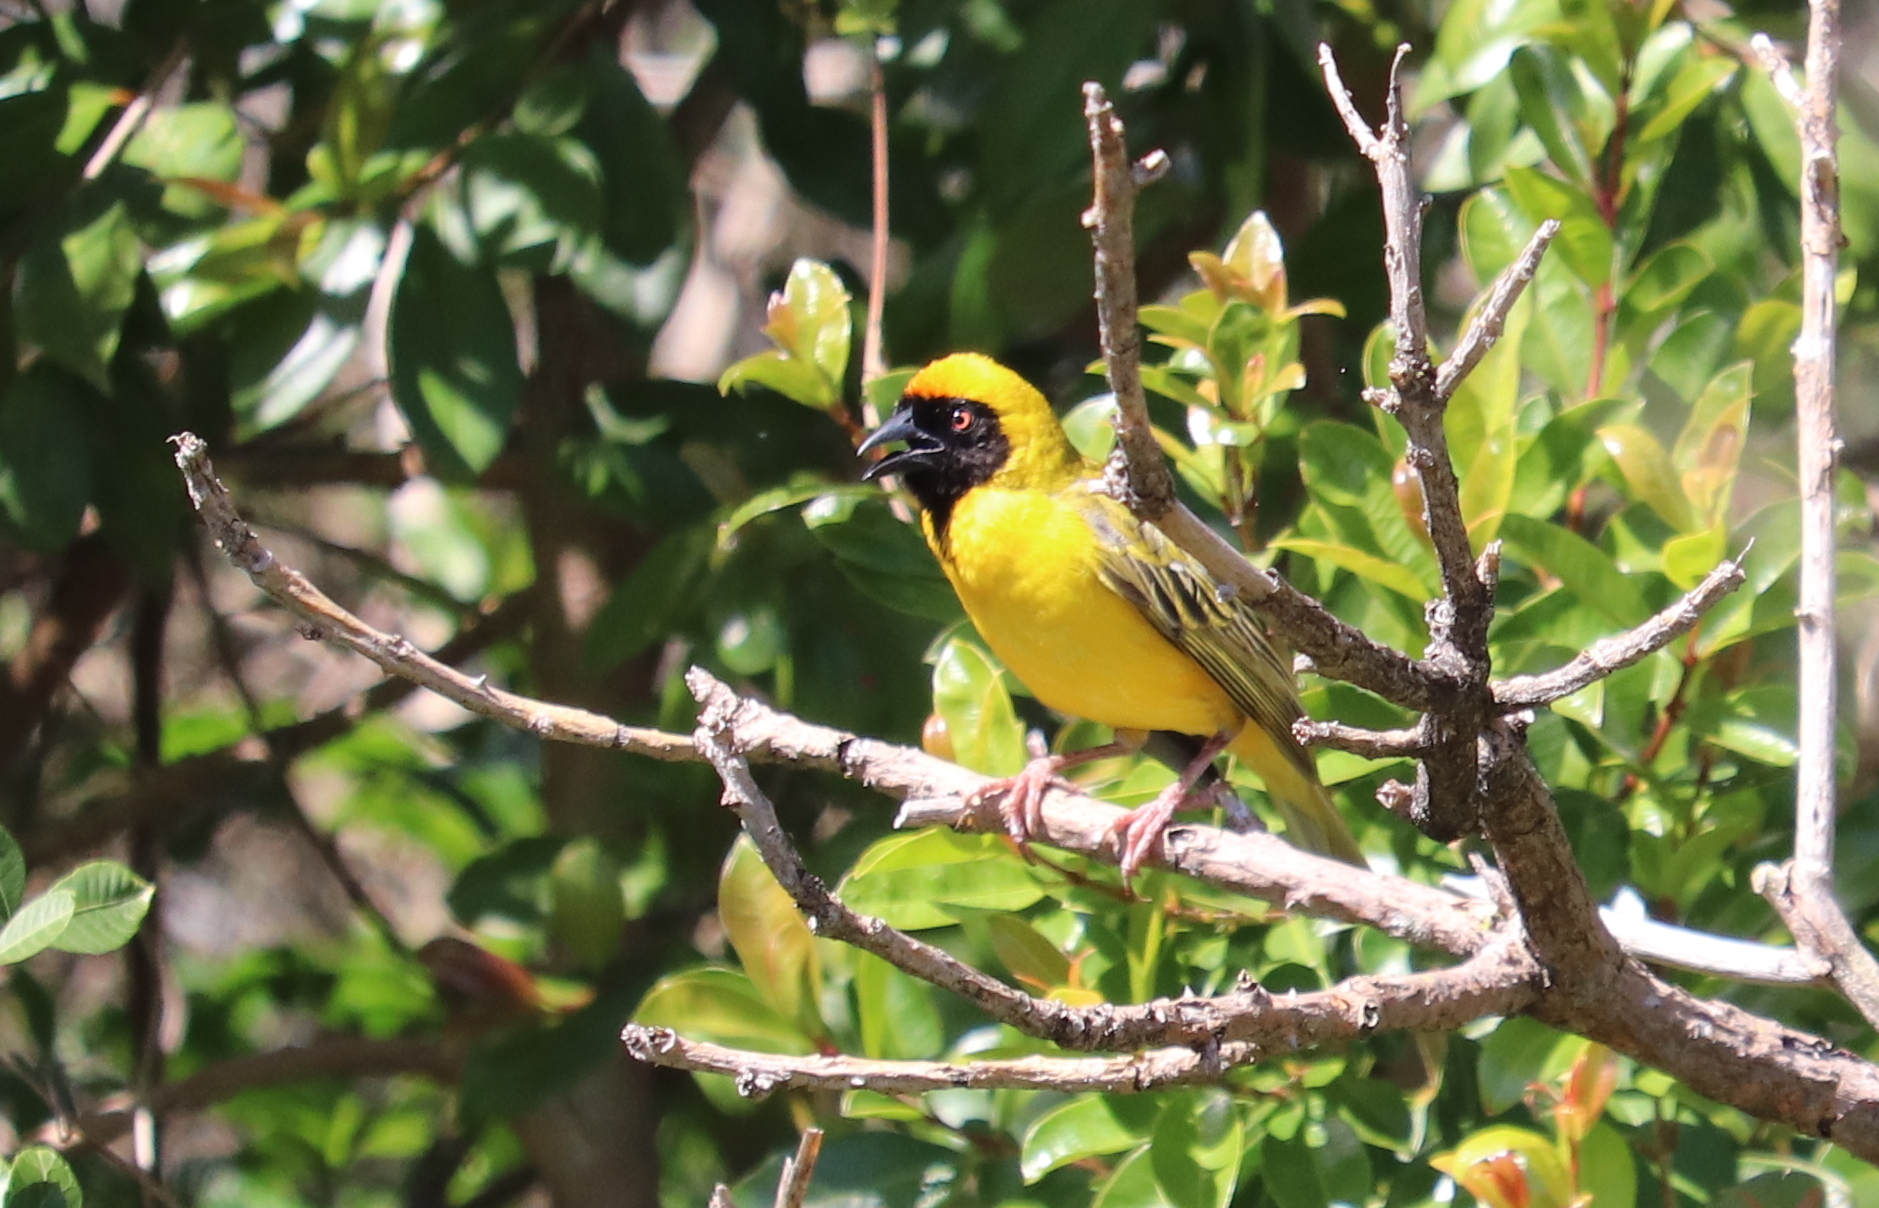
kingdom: Animalia
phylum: Chordata
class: Aves
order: Passeriformes
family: Ploceidae
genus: Ploceus
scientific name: Ploceus velatus
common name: Southern masked weaver
